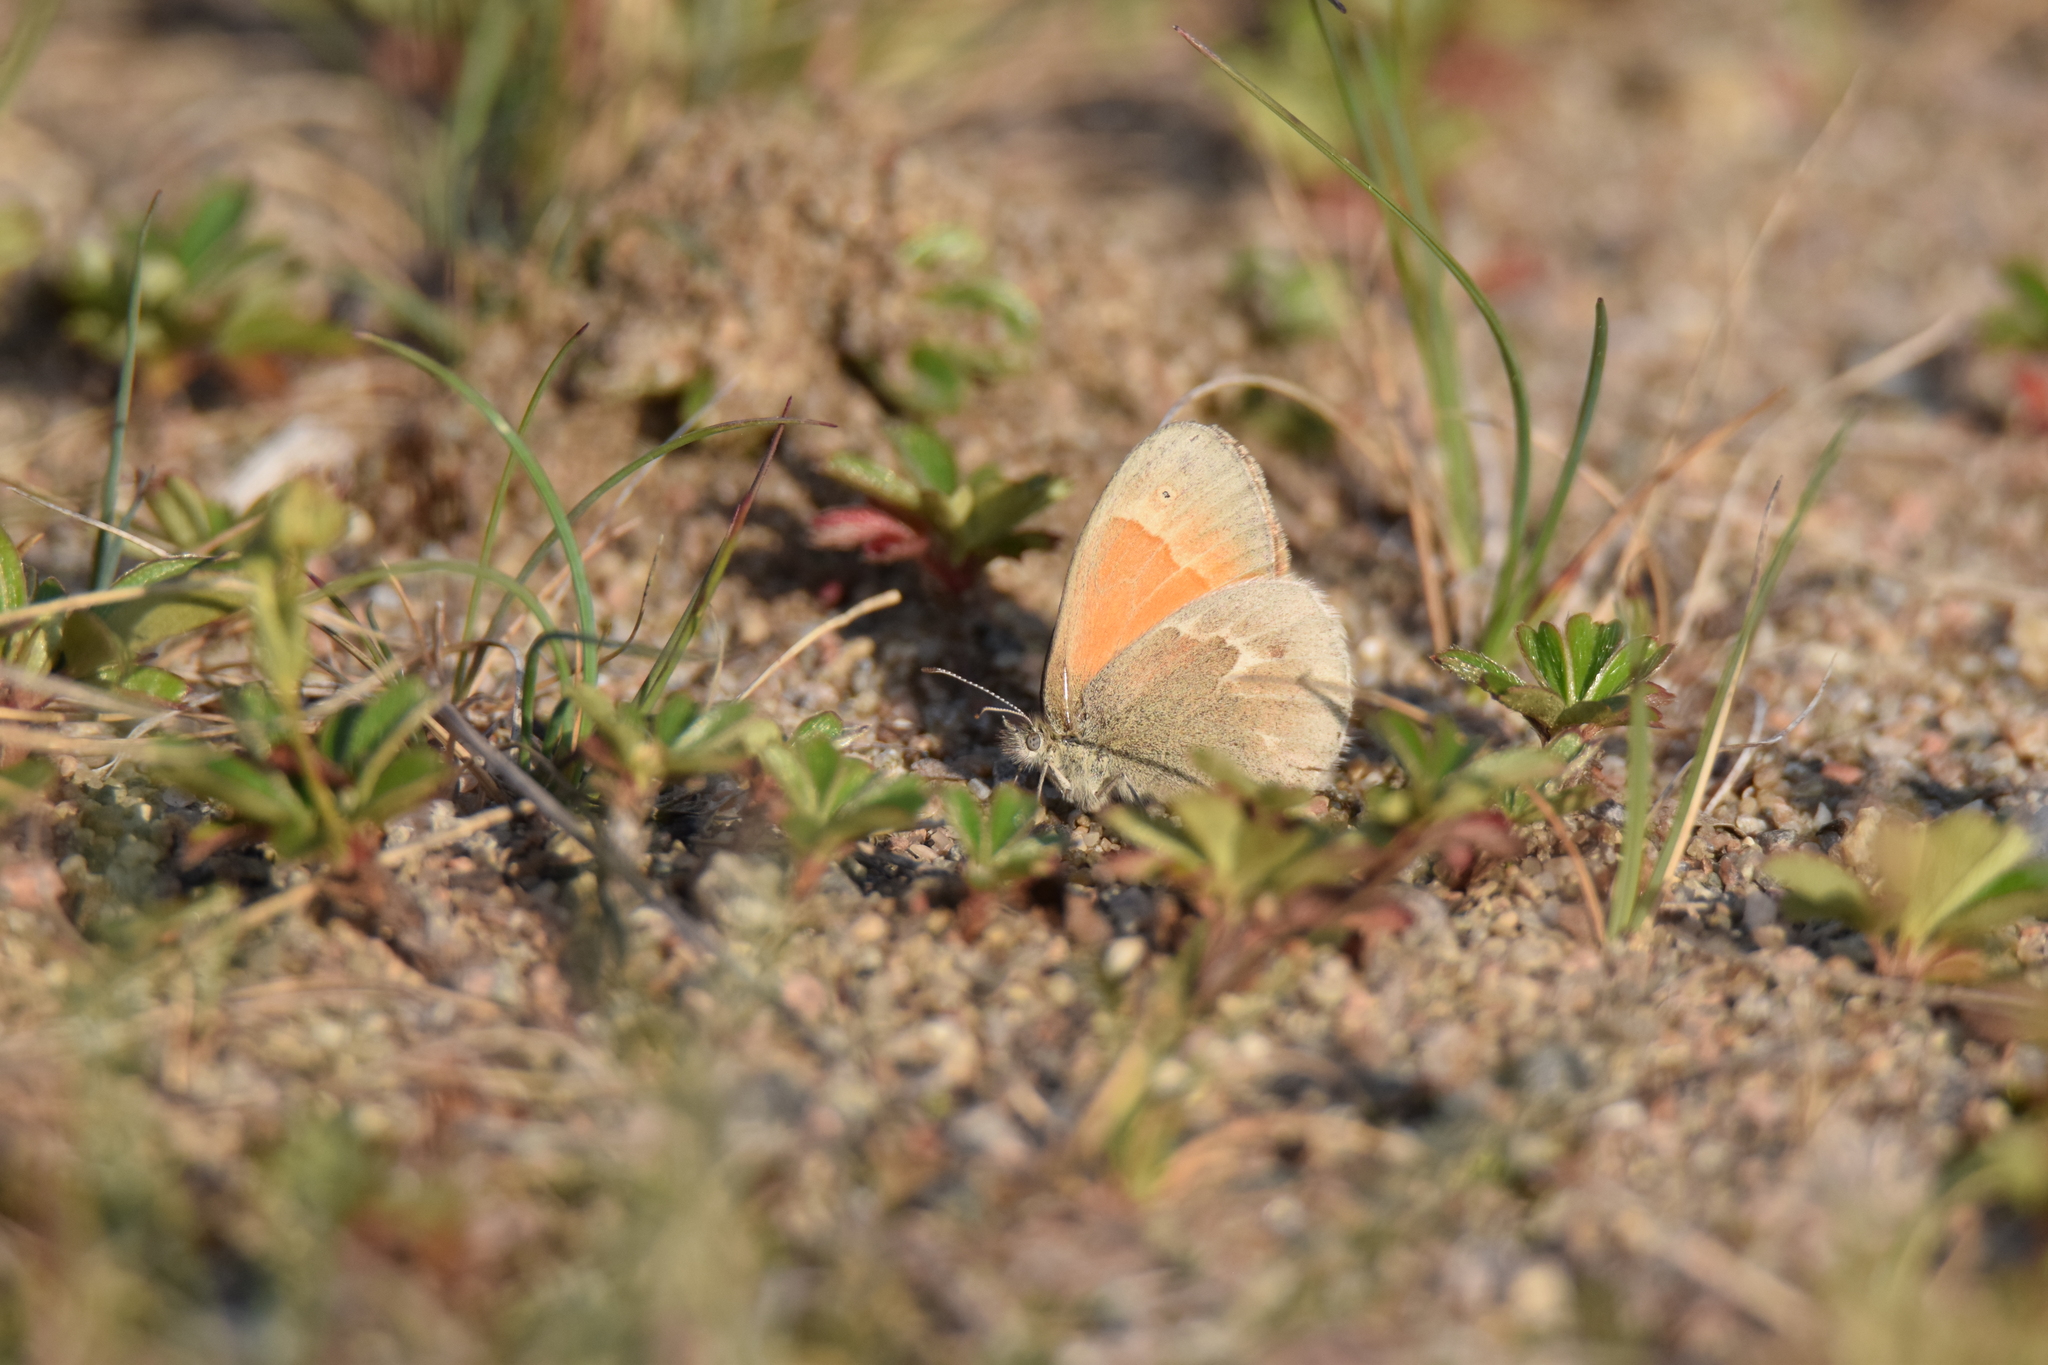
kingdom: Animalia
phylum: Arthropoda
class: Insecta
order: Lepidoptera
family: Nymphalidae
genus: Coenonympha
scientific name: Coenonympha california
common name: Common ringlet
